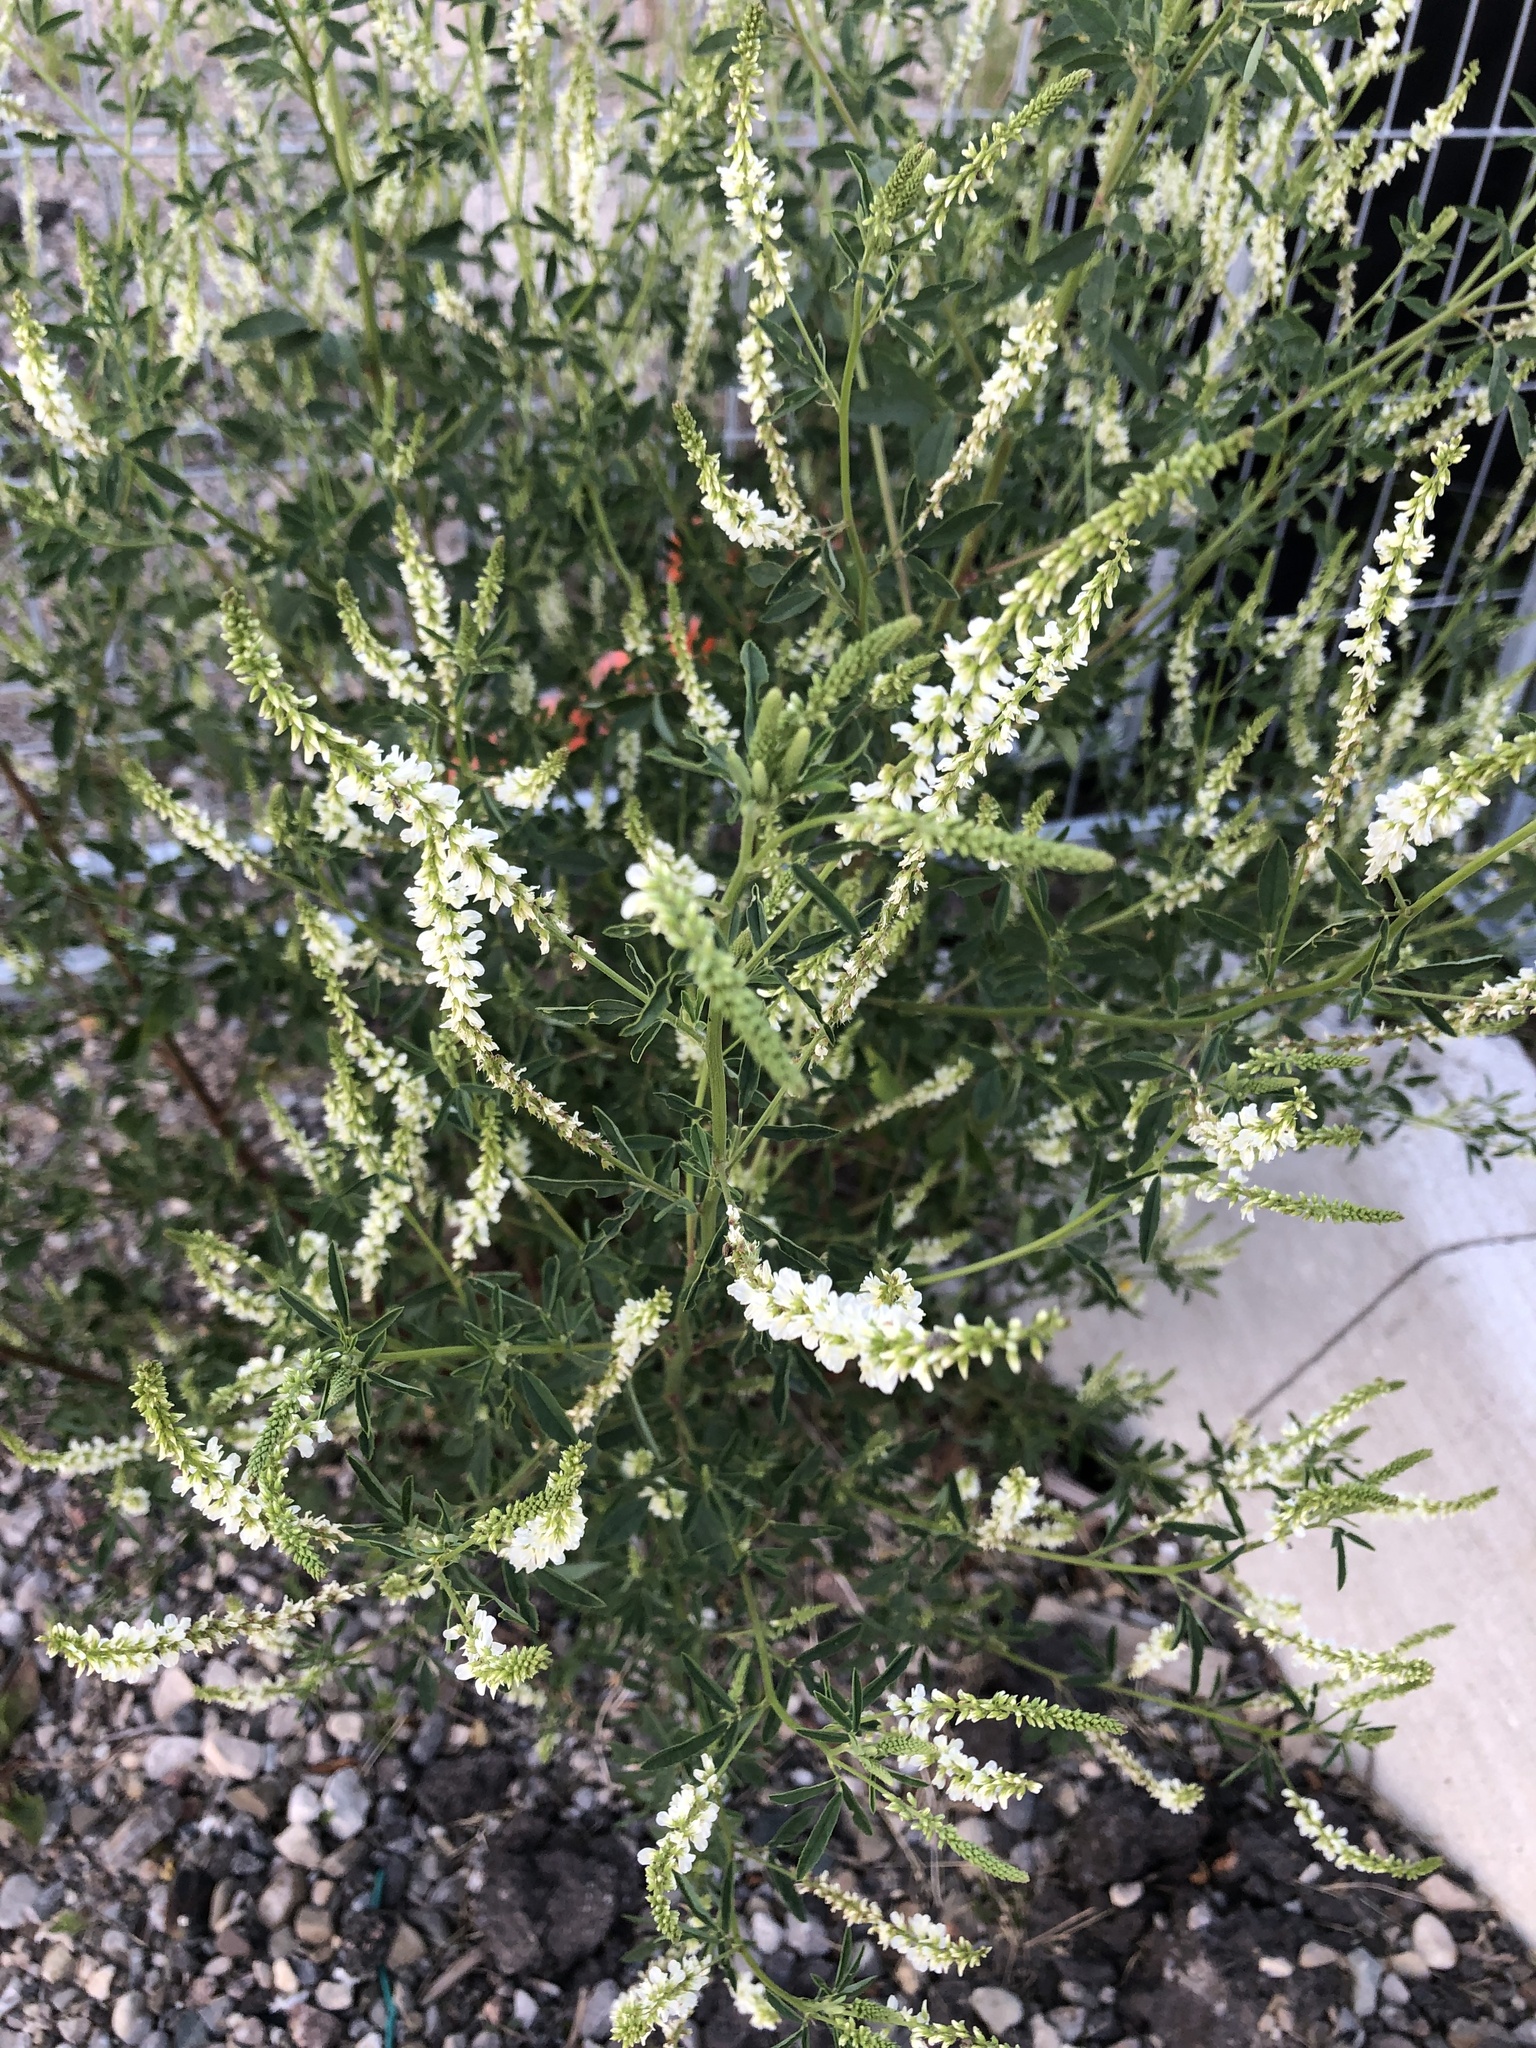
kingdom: Plantae
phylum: Tracheophyta
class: Magnoliopsida
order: Fabales
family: Fabaceae
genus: Melilotus
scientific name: Melilotus albus
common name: White melilot
